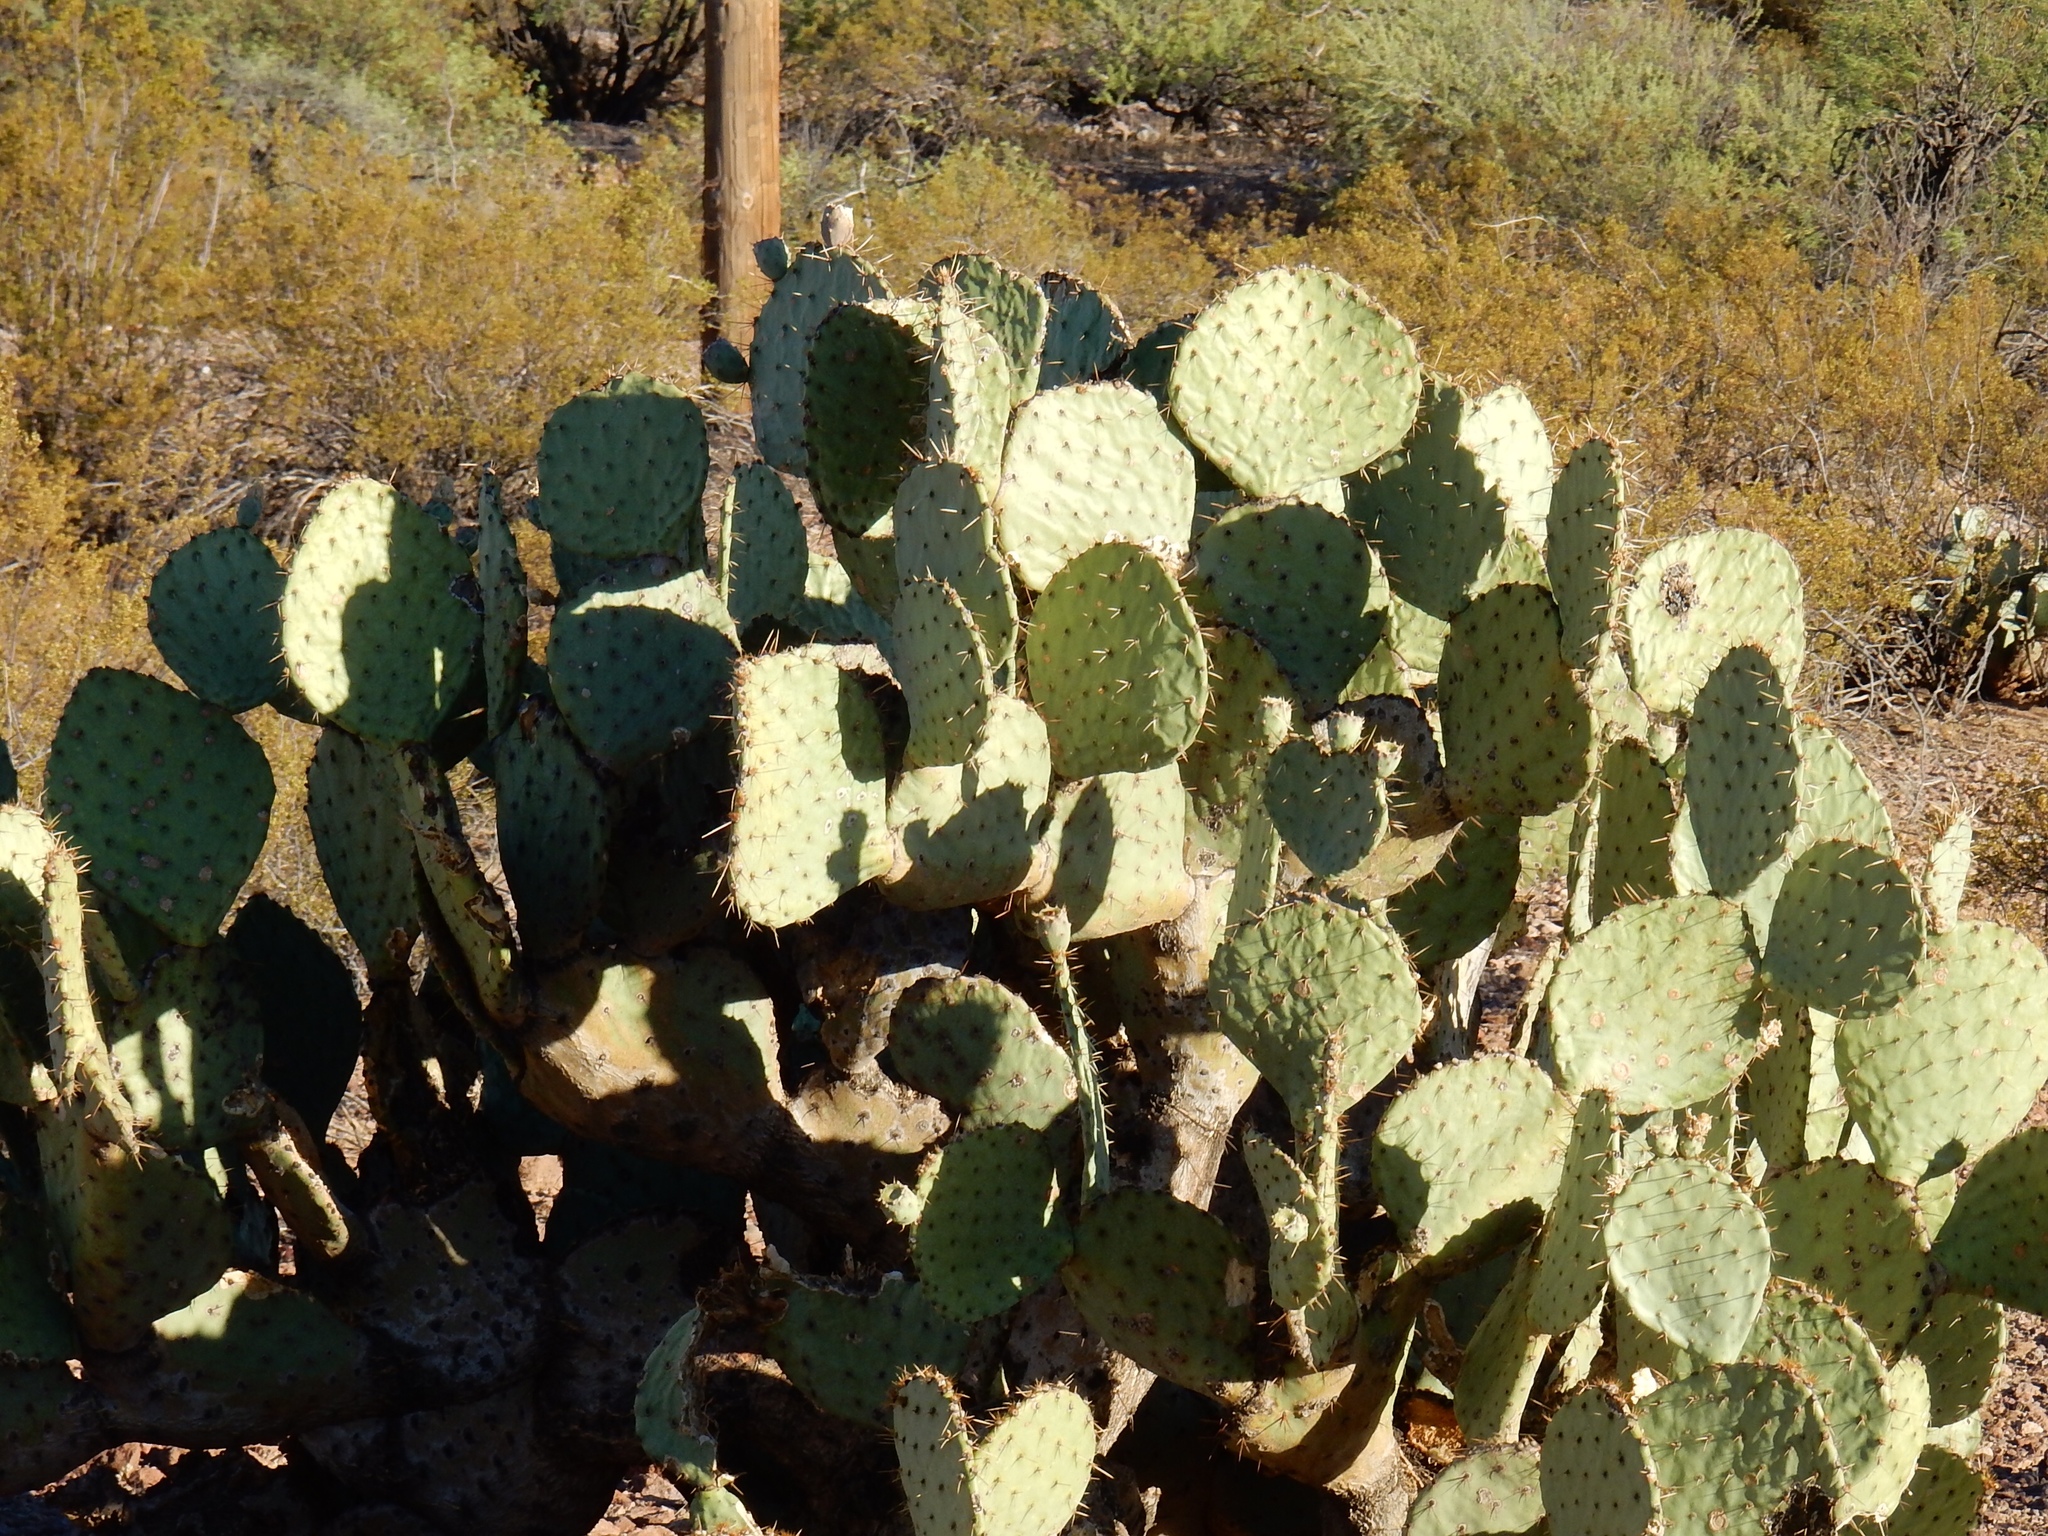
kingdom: Plantae
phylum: Tracheophyta
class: Magnoliopsida
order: Caryophyllales
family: Cactaceae
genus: Opuntia
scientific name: Opuntia orbiculata
